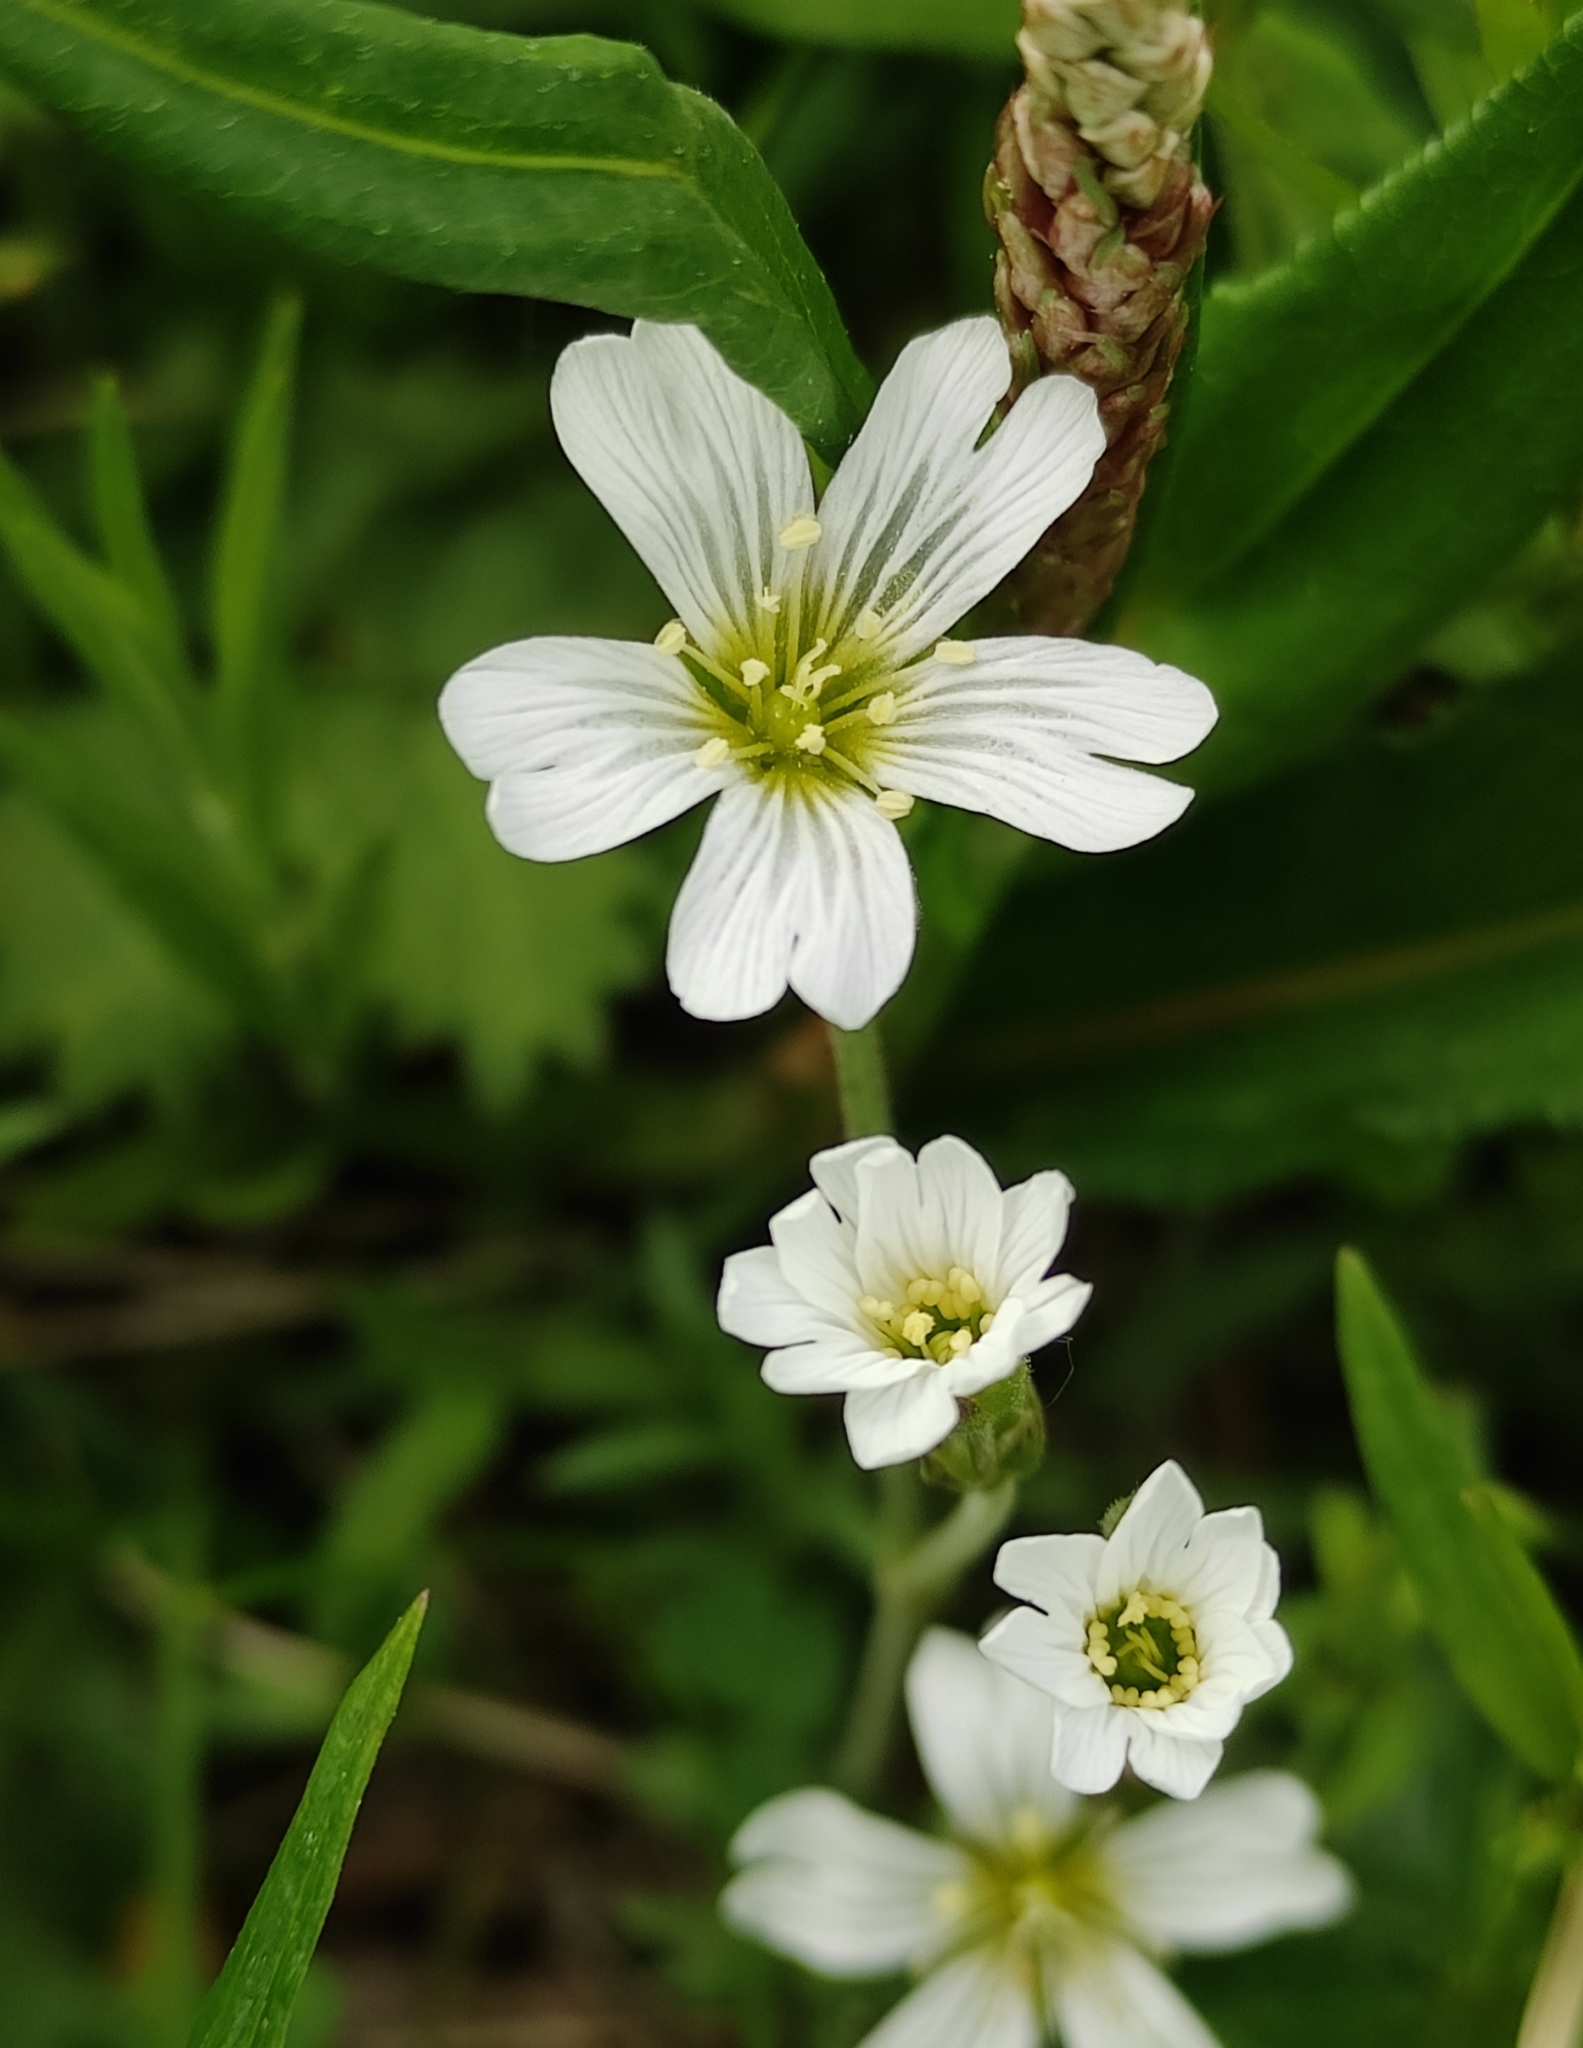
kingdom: Plantae
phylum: Tracheophyta
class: Magnoliopsida
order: Caryophyllales
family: Caryophyllaceae
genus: Cerastium
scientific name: Cerastium arvense
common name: Field mouse-ear
